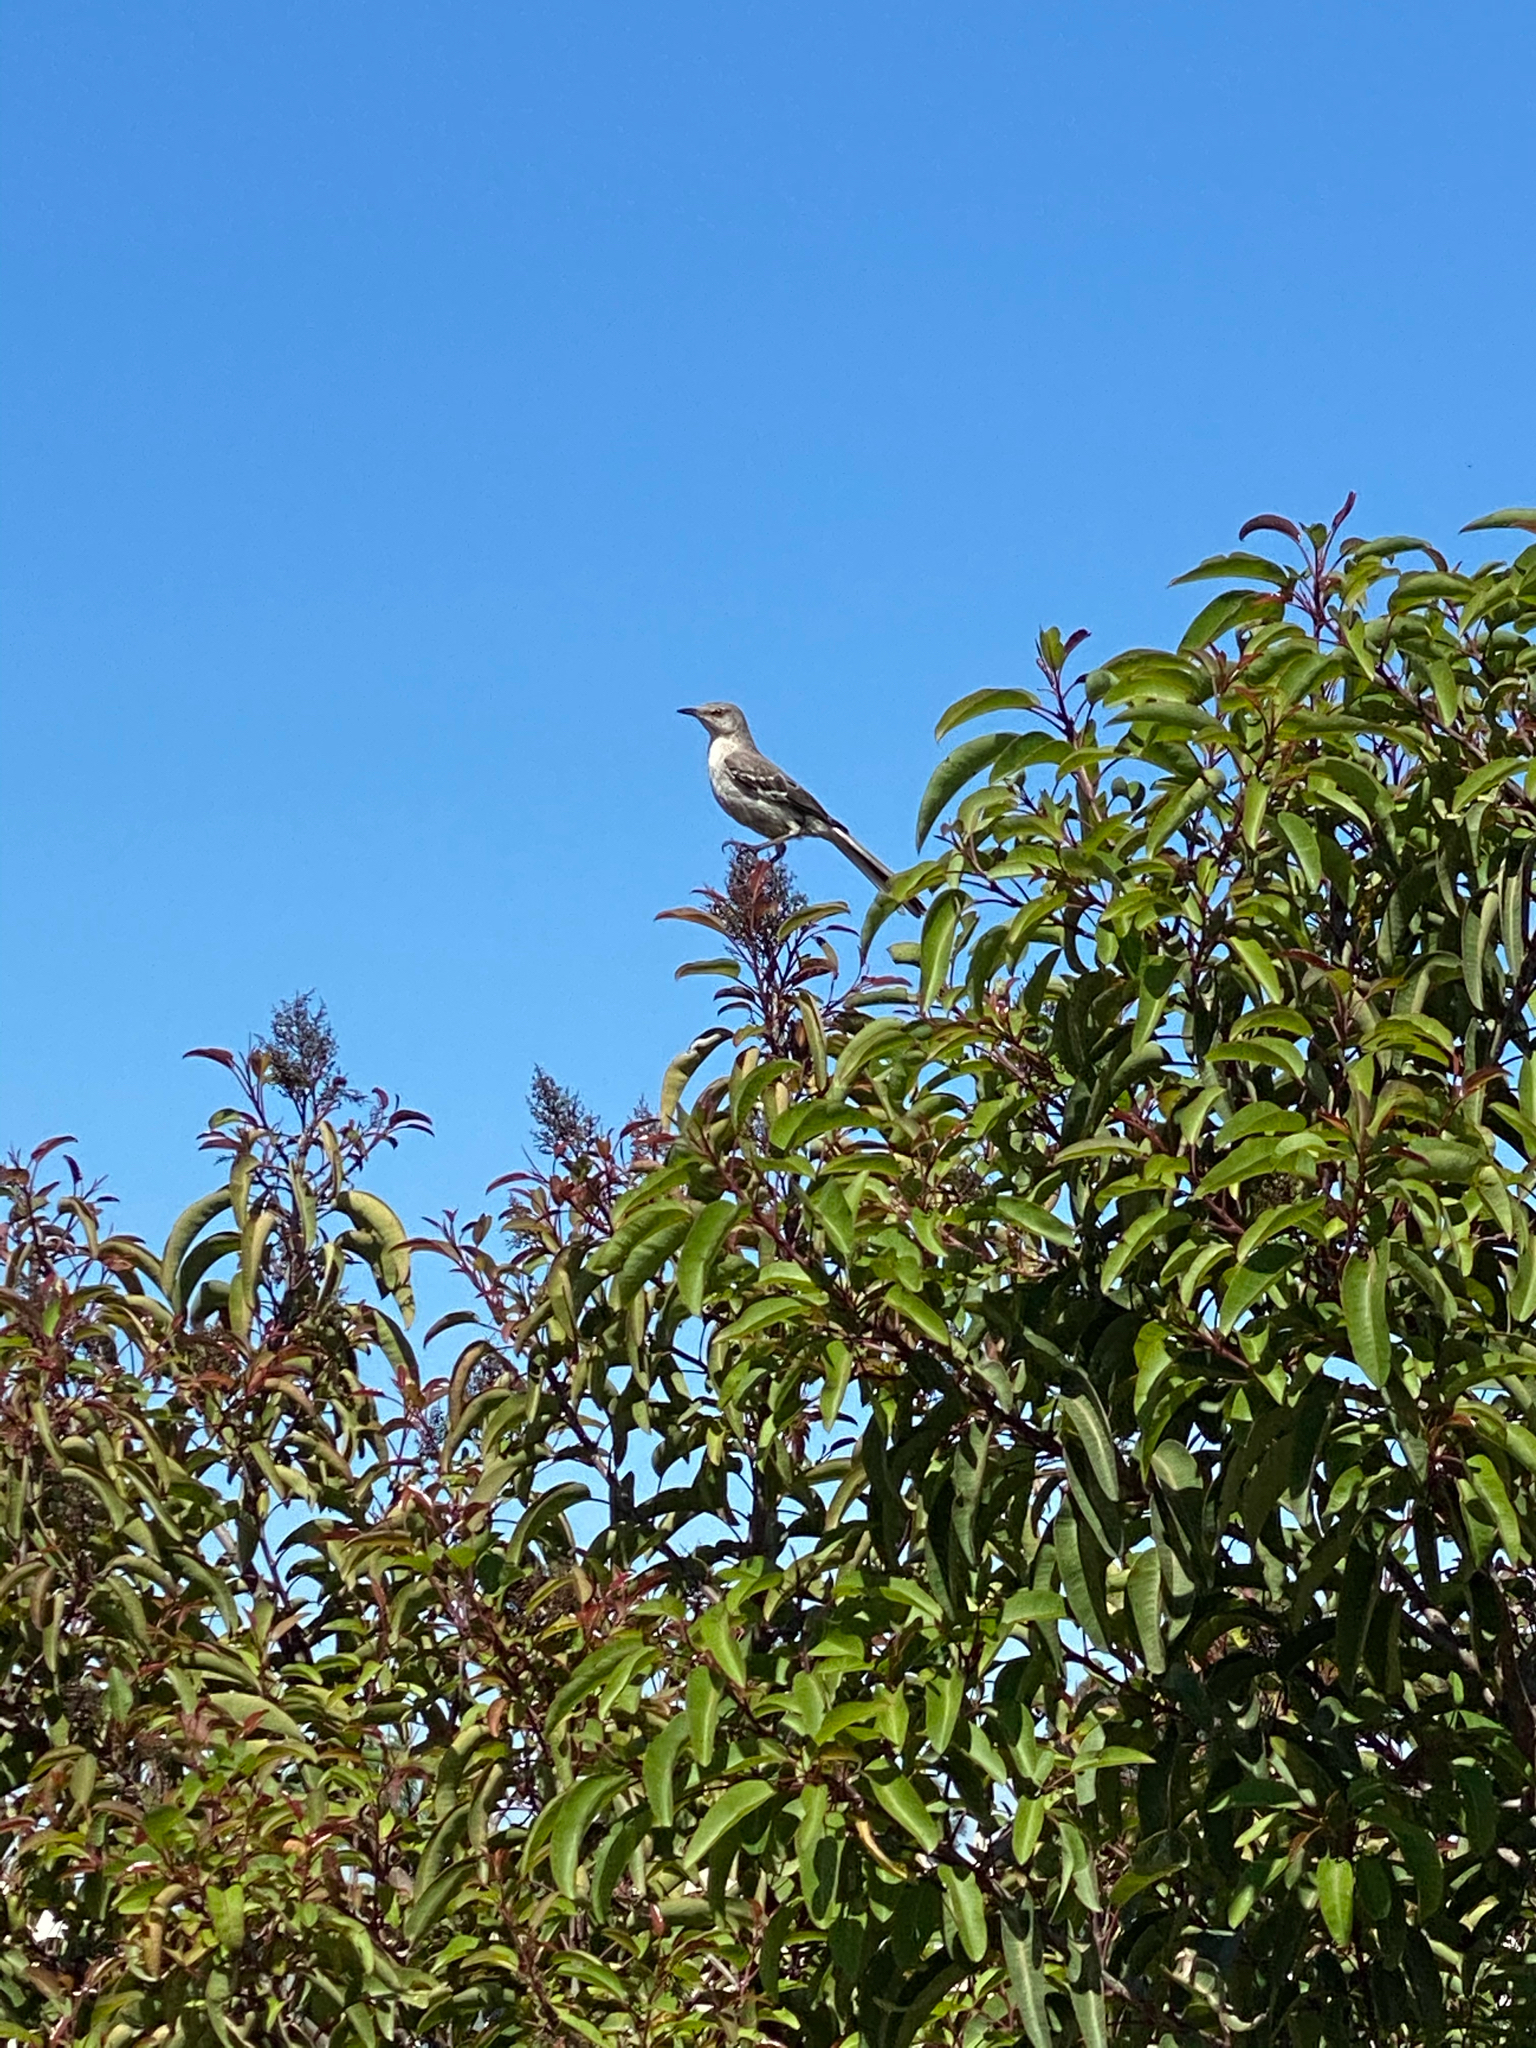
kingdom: Animalia
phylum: Chordata
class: Aves
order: Passeriformes
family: Mimidae
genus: Mimus
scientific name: Mimus polyglottos
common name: Northern mockingbird
